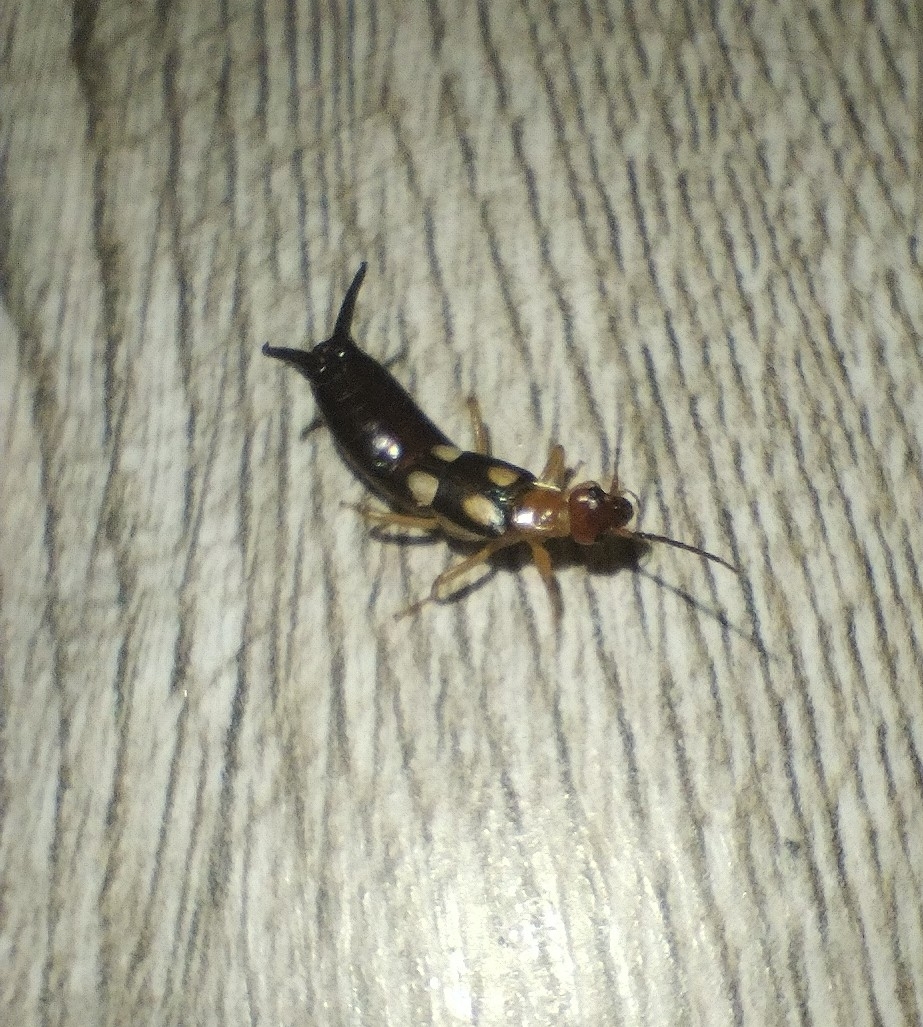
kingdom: Animalia
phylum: Arthropoda
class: Insecta
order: Dermaptera
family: Forficulidae
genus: Forficula
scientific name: Forficula smyrnensis
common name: Smyrna earwig
